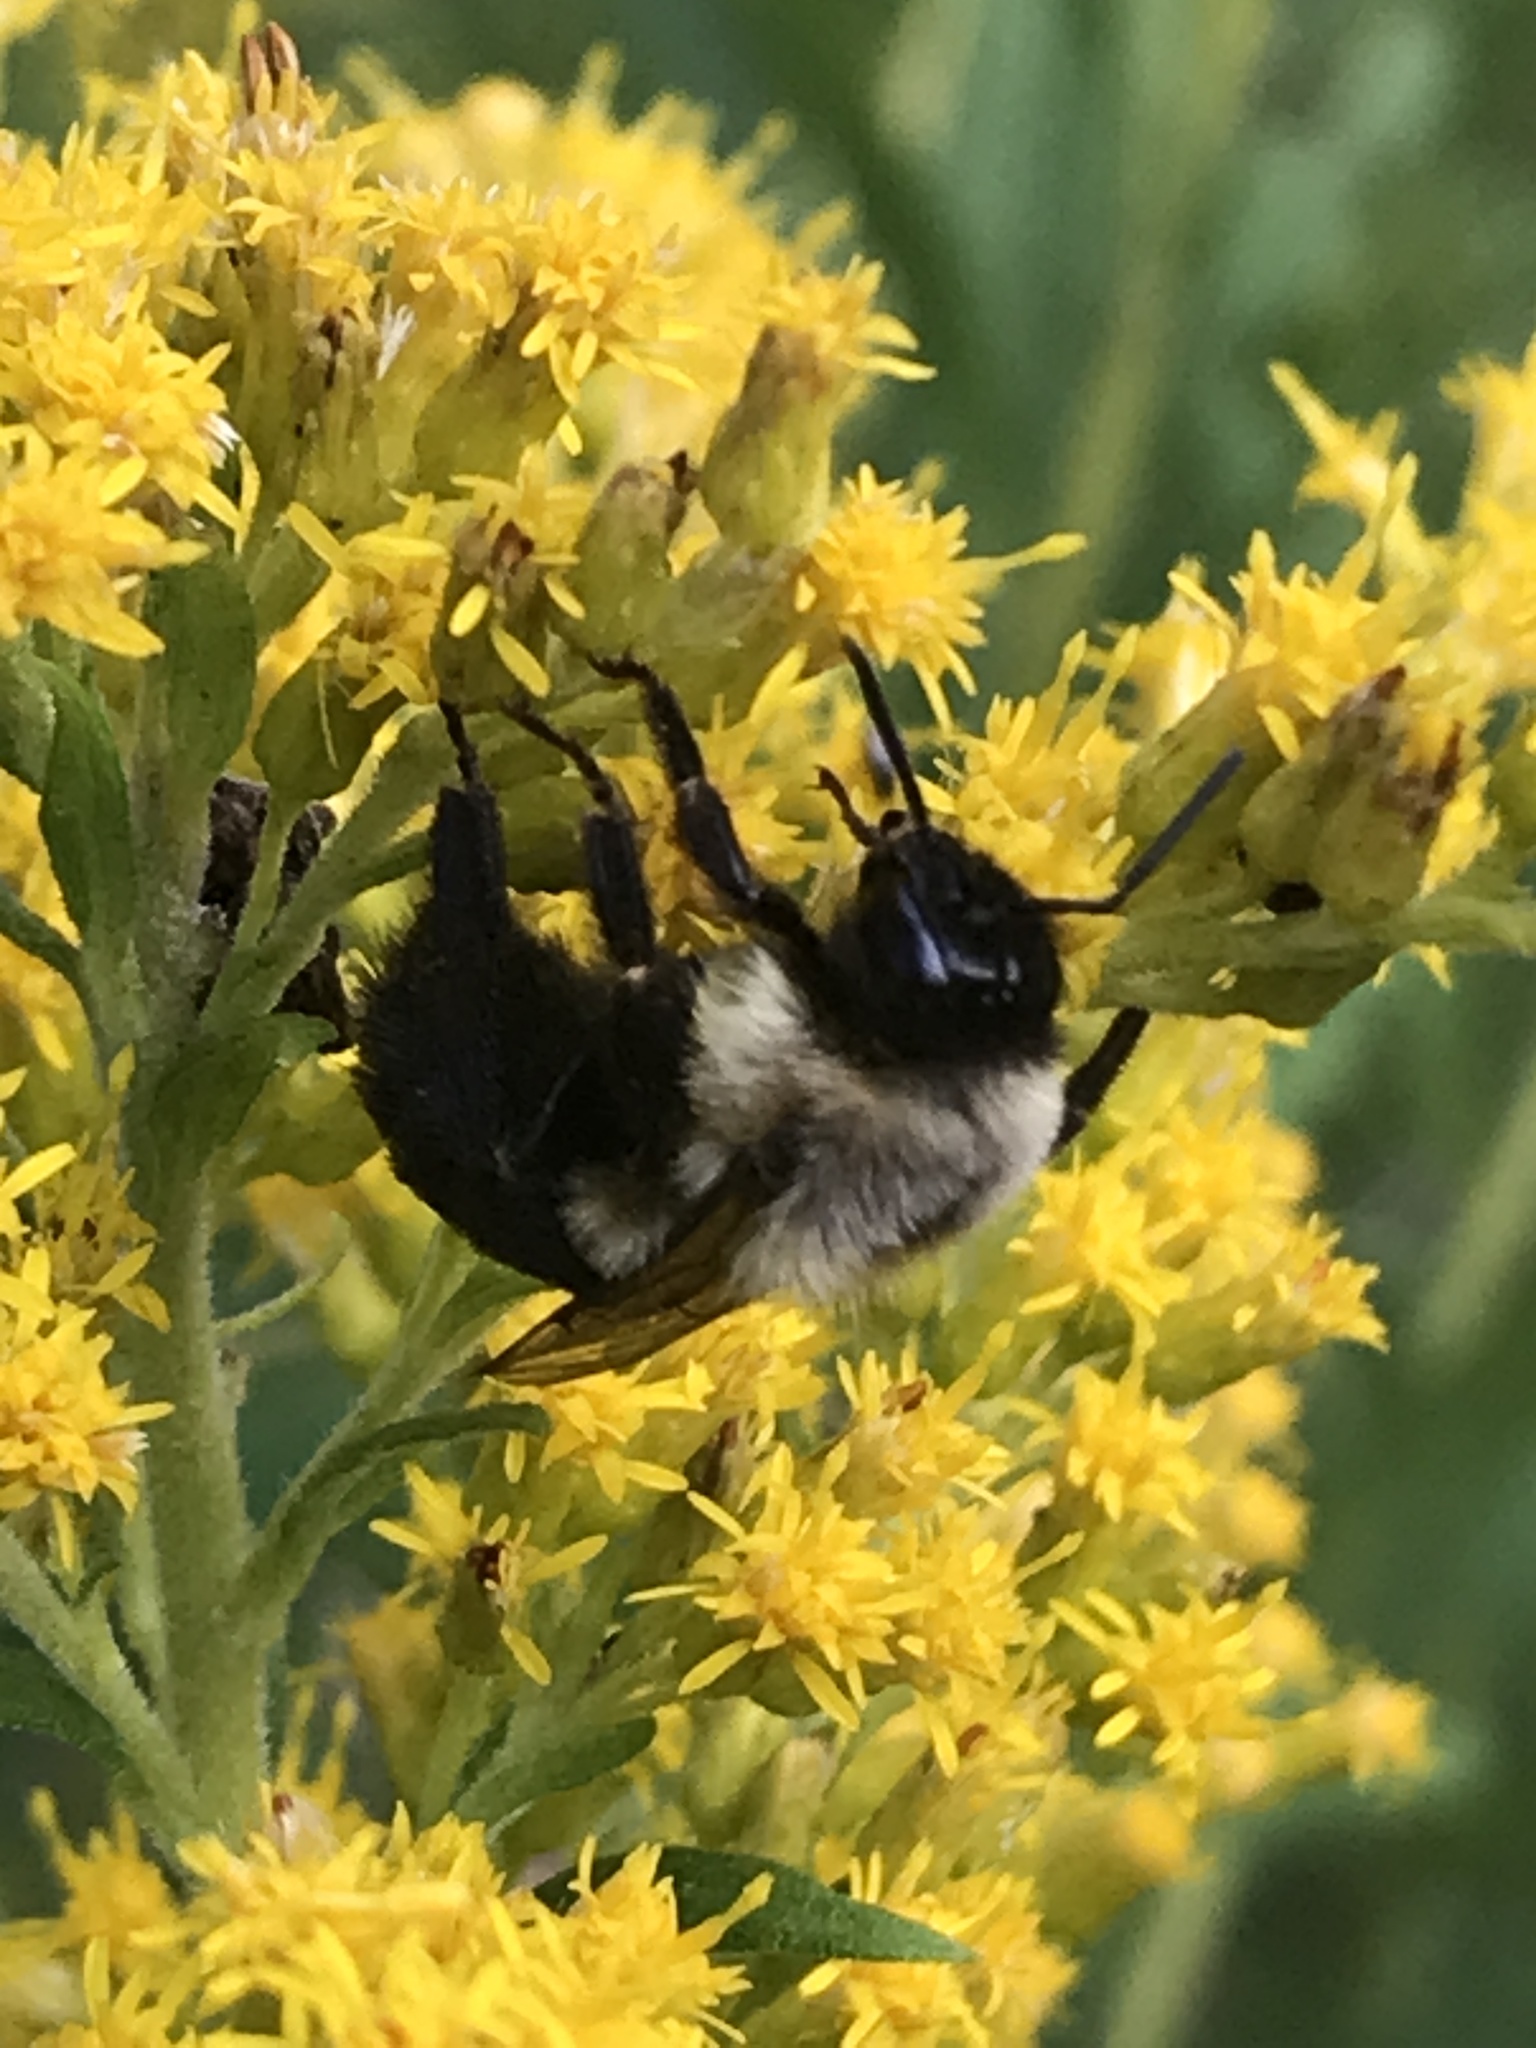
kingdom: Animalia
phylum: Arthropoda
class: Insecta
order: Hymenoptera
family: Apidae
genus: Bombus
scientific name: Bombus impatiens
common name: Common eastern bumble bee
